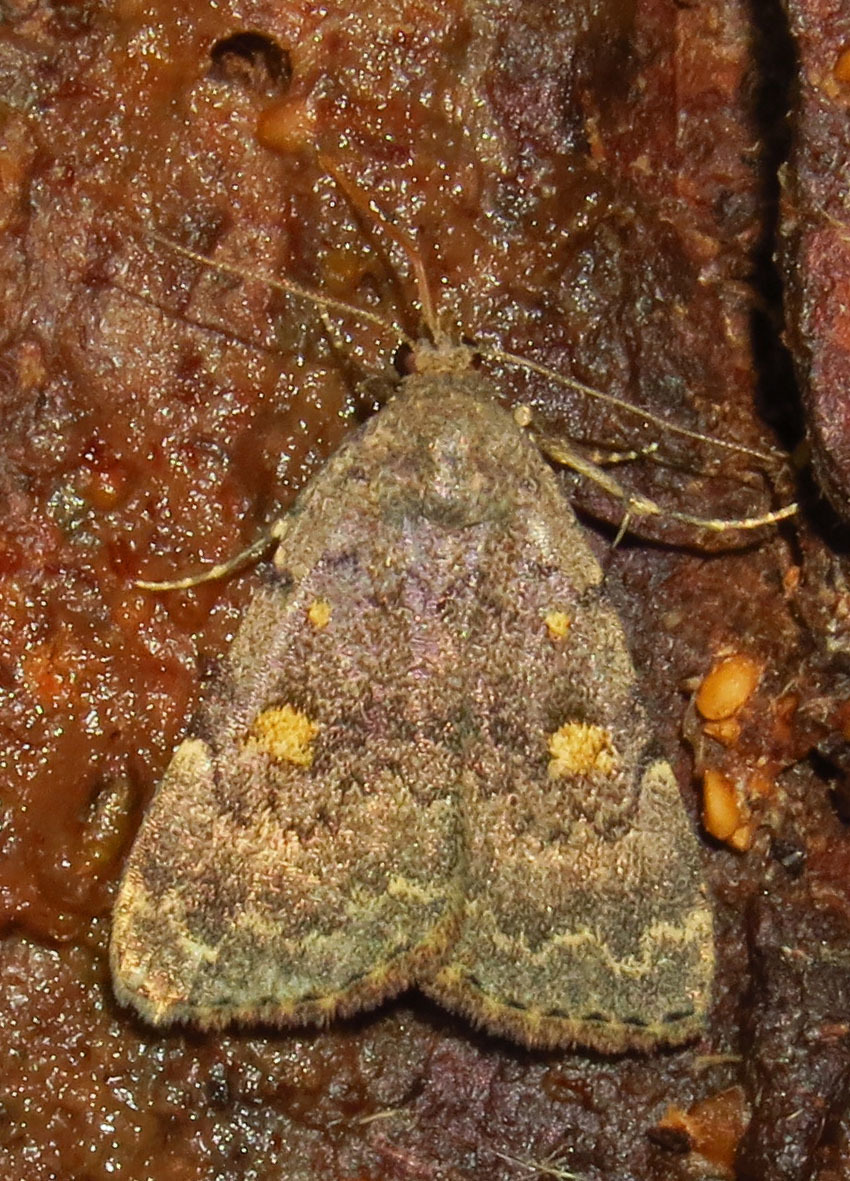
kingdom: Animalia
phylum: Arthropoda
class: Insecta
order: Lepidoptera
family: Erebidae
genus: Idia
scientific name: Idia aemula
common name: Common idia moth
